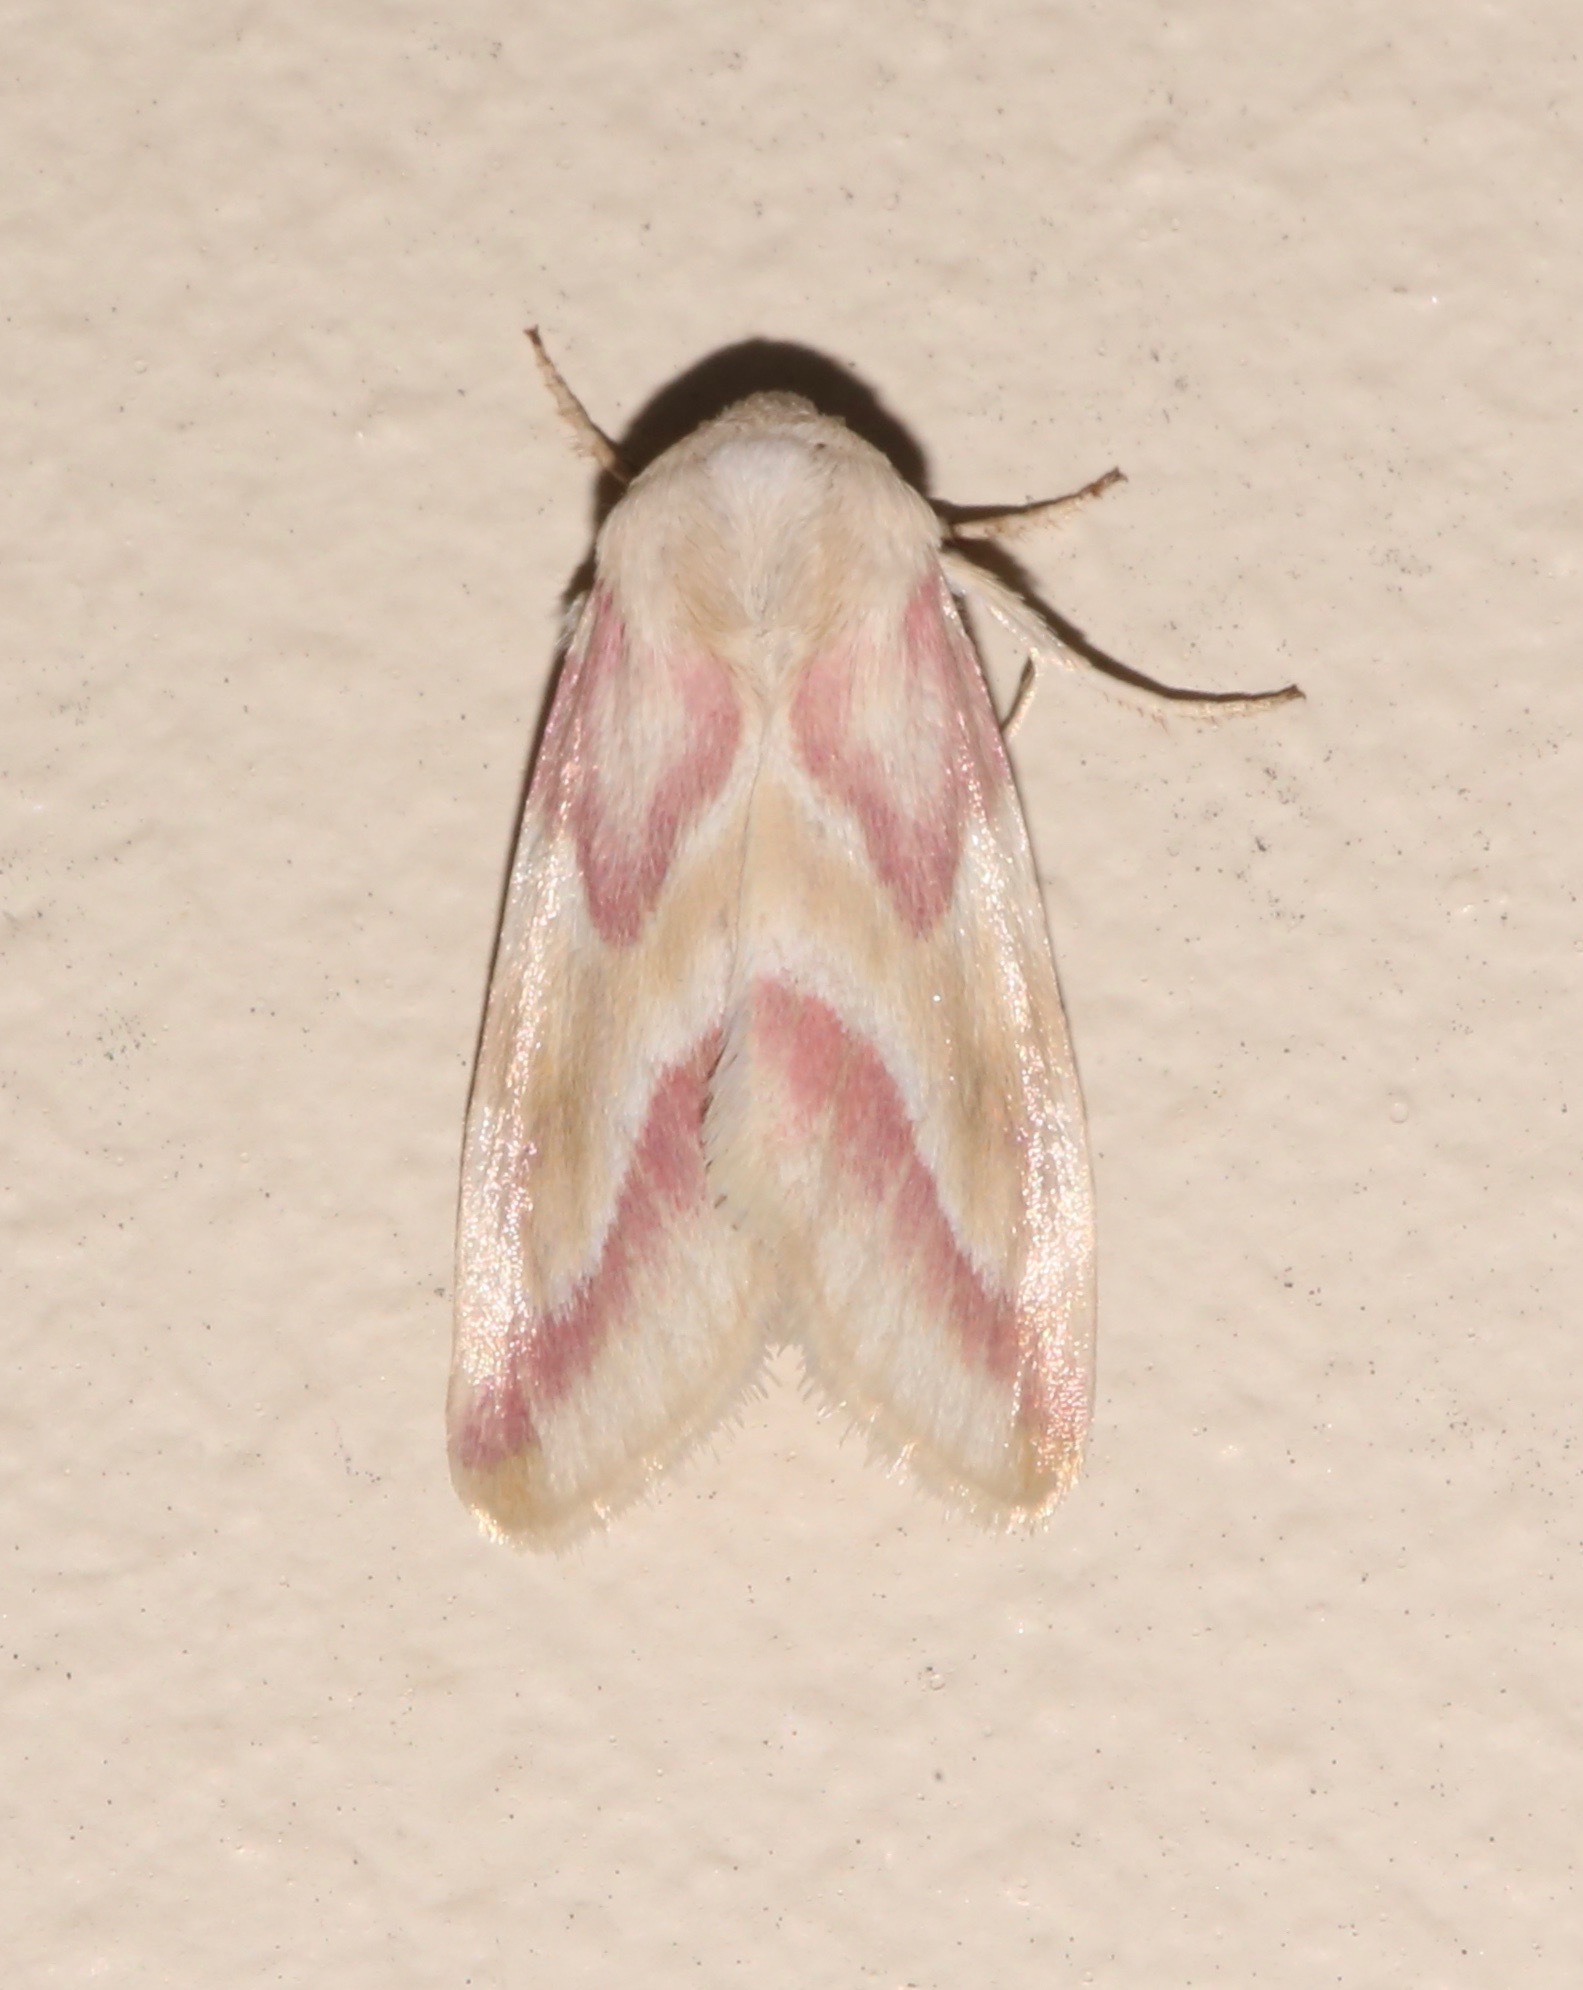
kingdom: Animalia
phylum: Arthropoda
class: Insecta
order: Lepidoptera
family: Noctuidae
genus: Schinia
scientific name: Schinia regina
